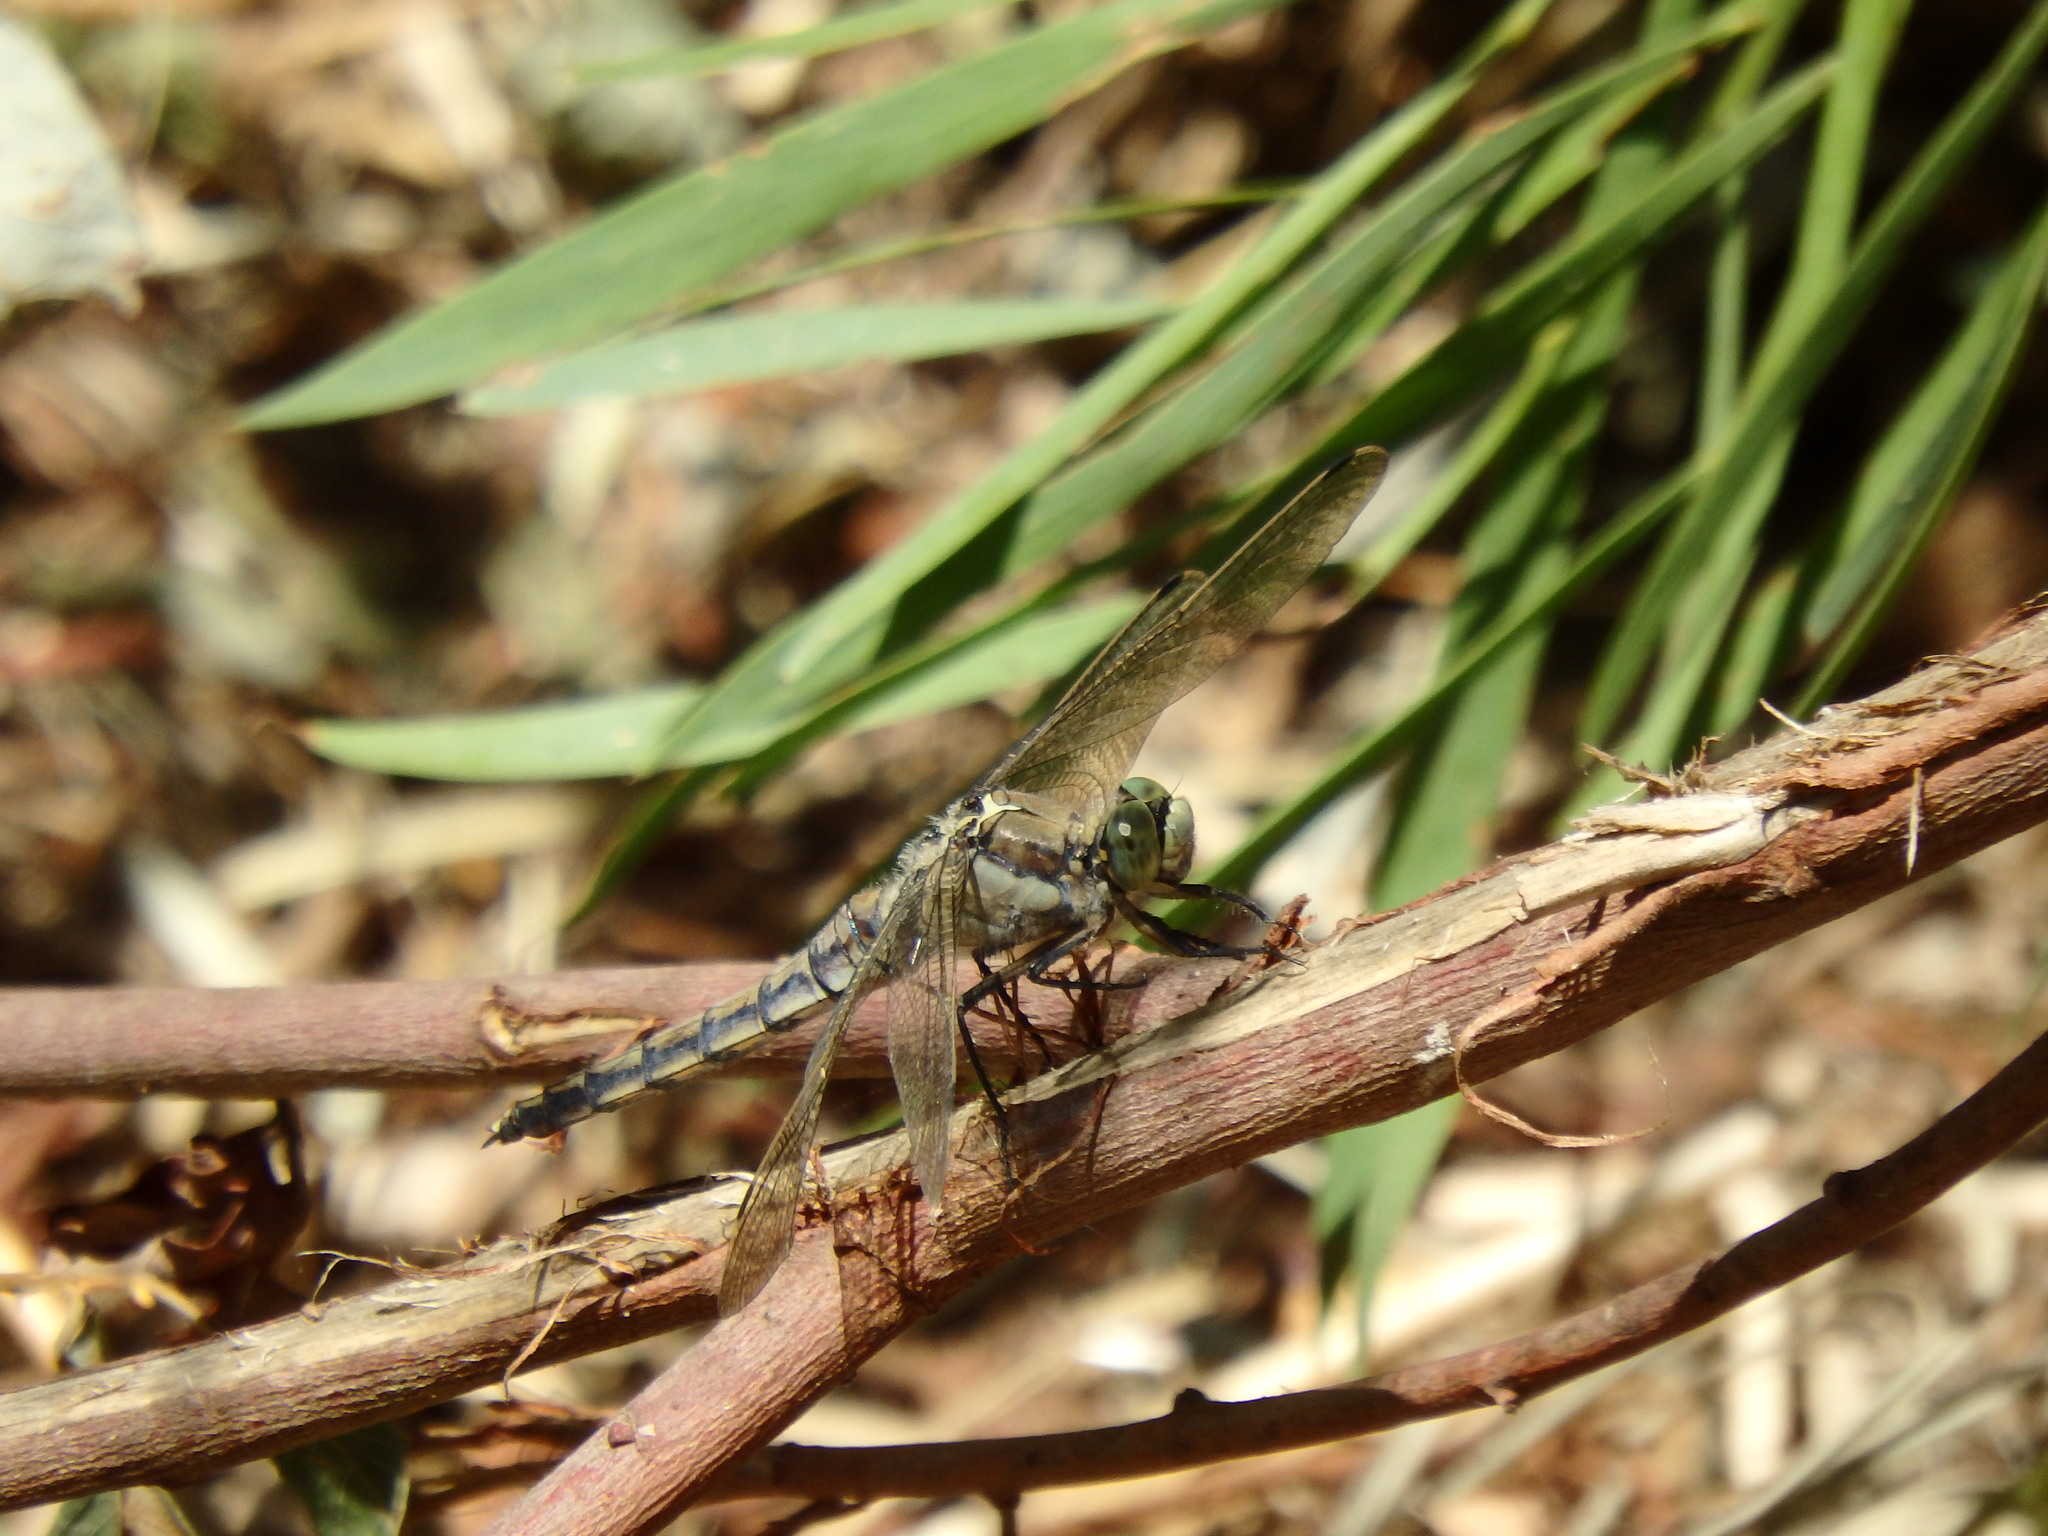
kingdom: Animalia
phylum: Arthropoda
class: Insecta
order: Odonata
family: Libellulidae
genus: Orthetrum
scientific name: Orthetrum cancellatum
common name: Black-tailed skimmer
